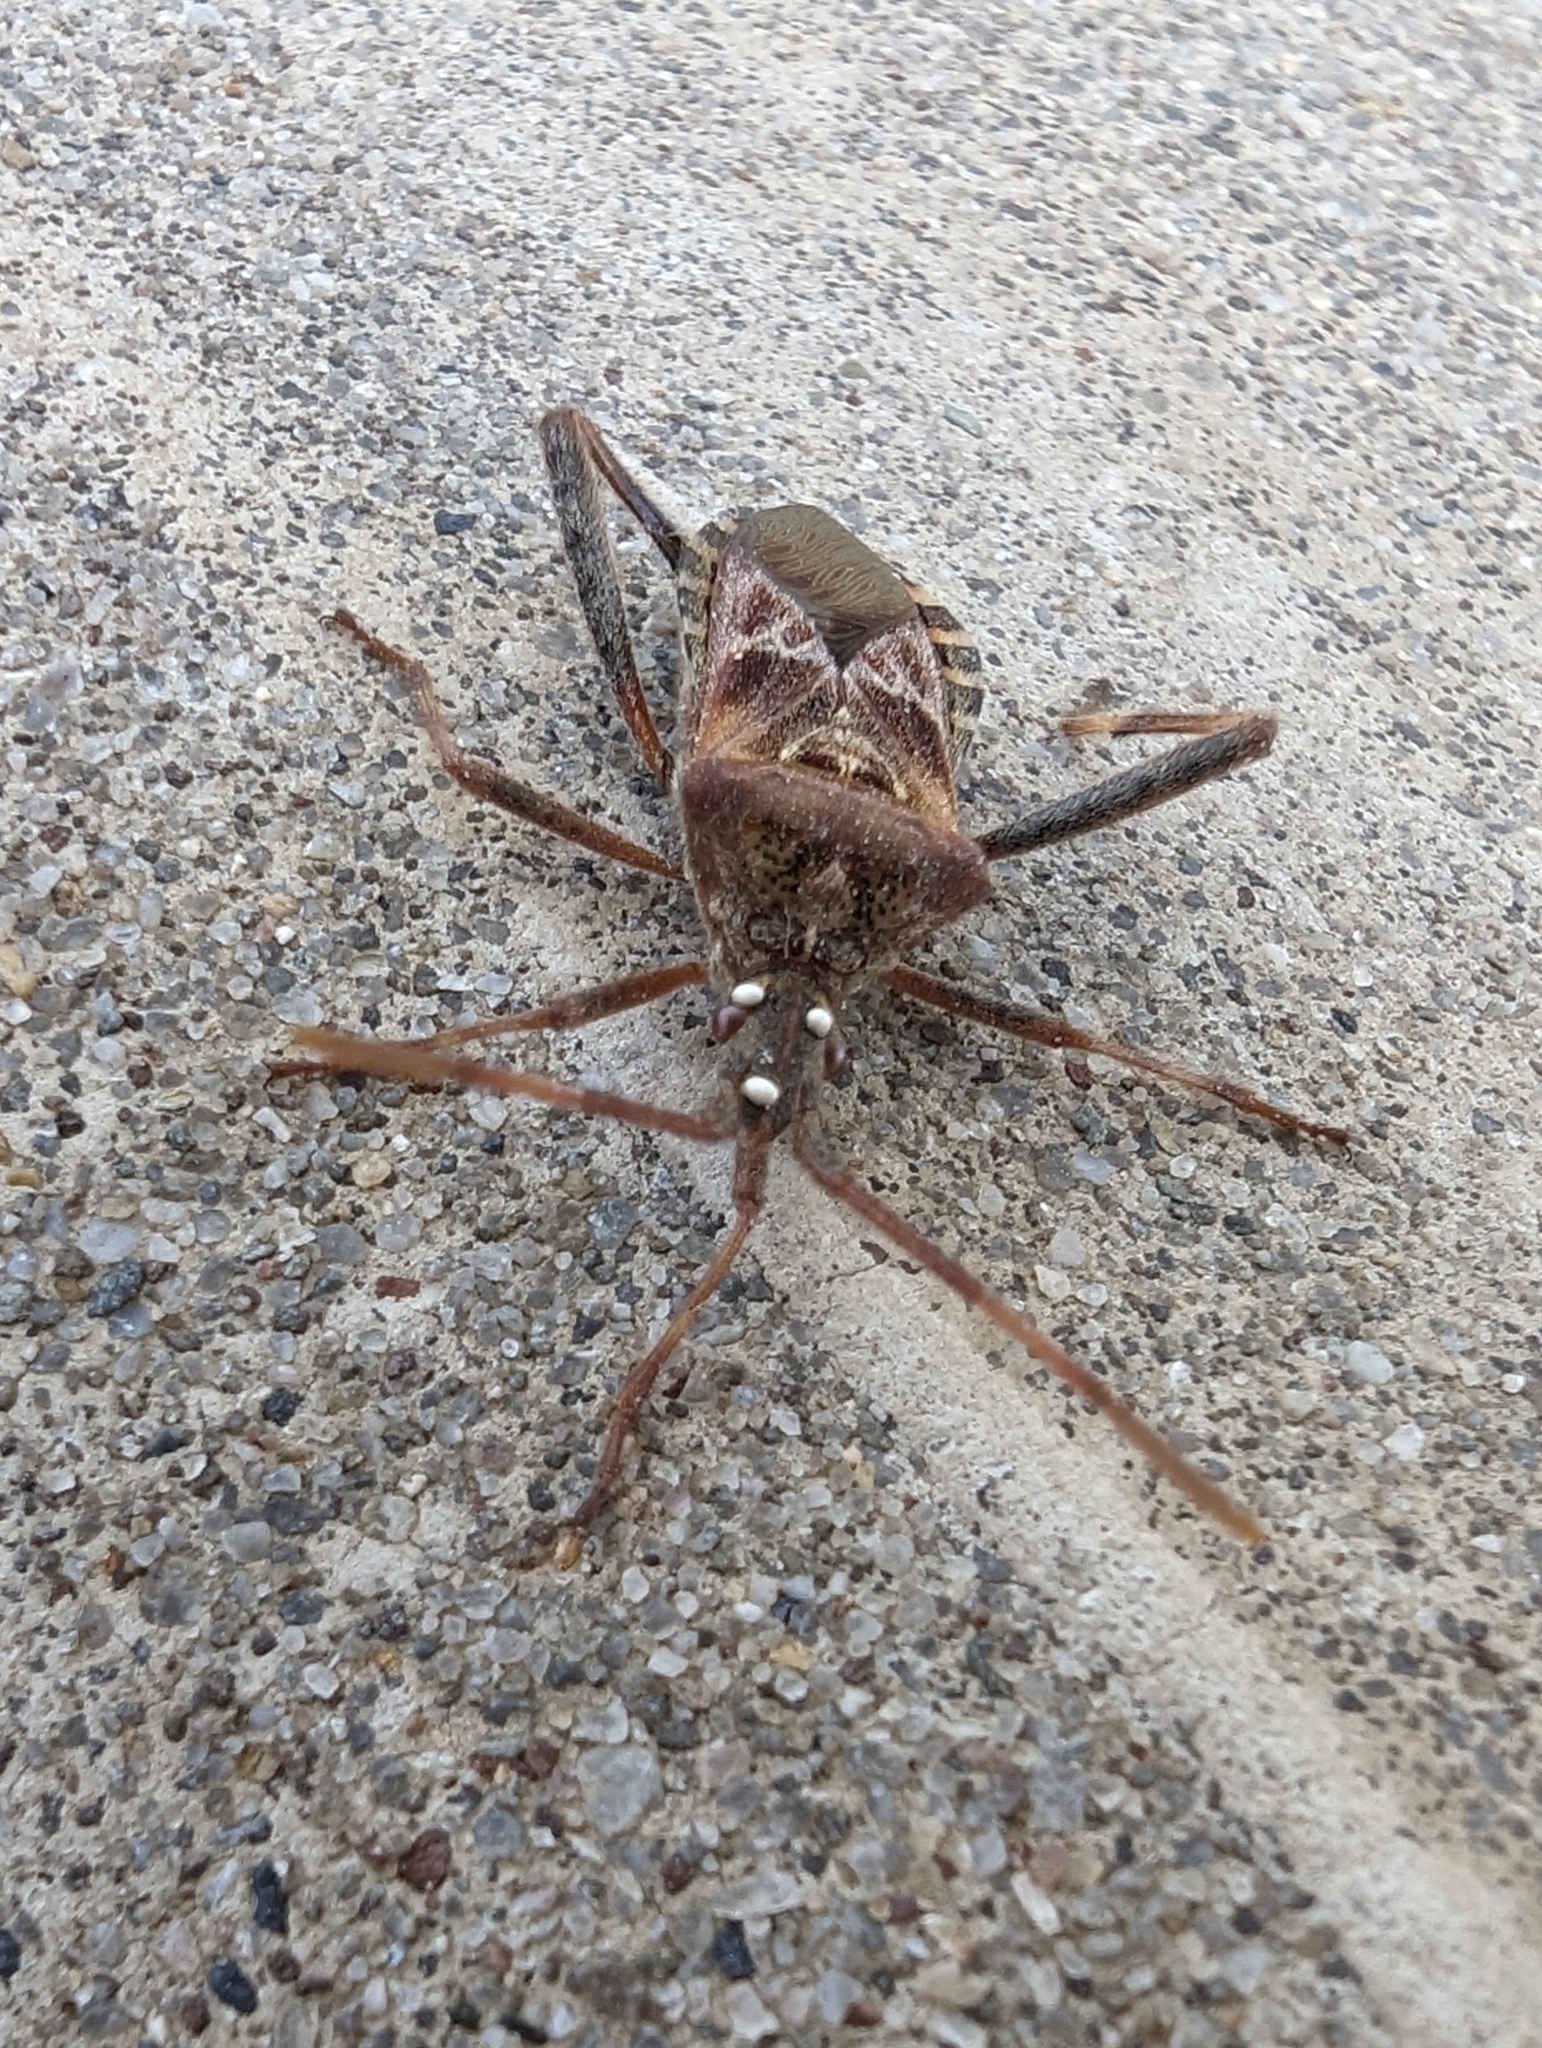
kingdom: Animalia
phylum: Arthropoda
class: Insecta
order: Hemiptera
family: Coreidae
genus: Leptoglossus
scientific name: Leptoglossus occidentalis
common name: Western conifer-seed bug
